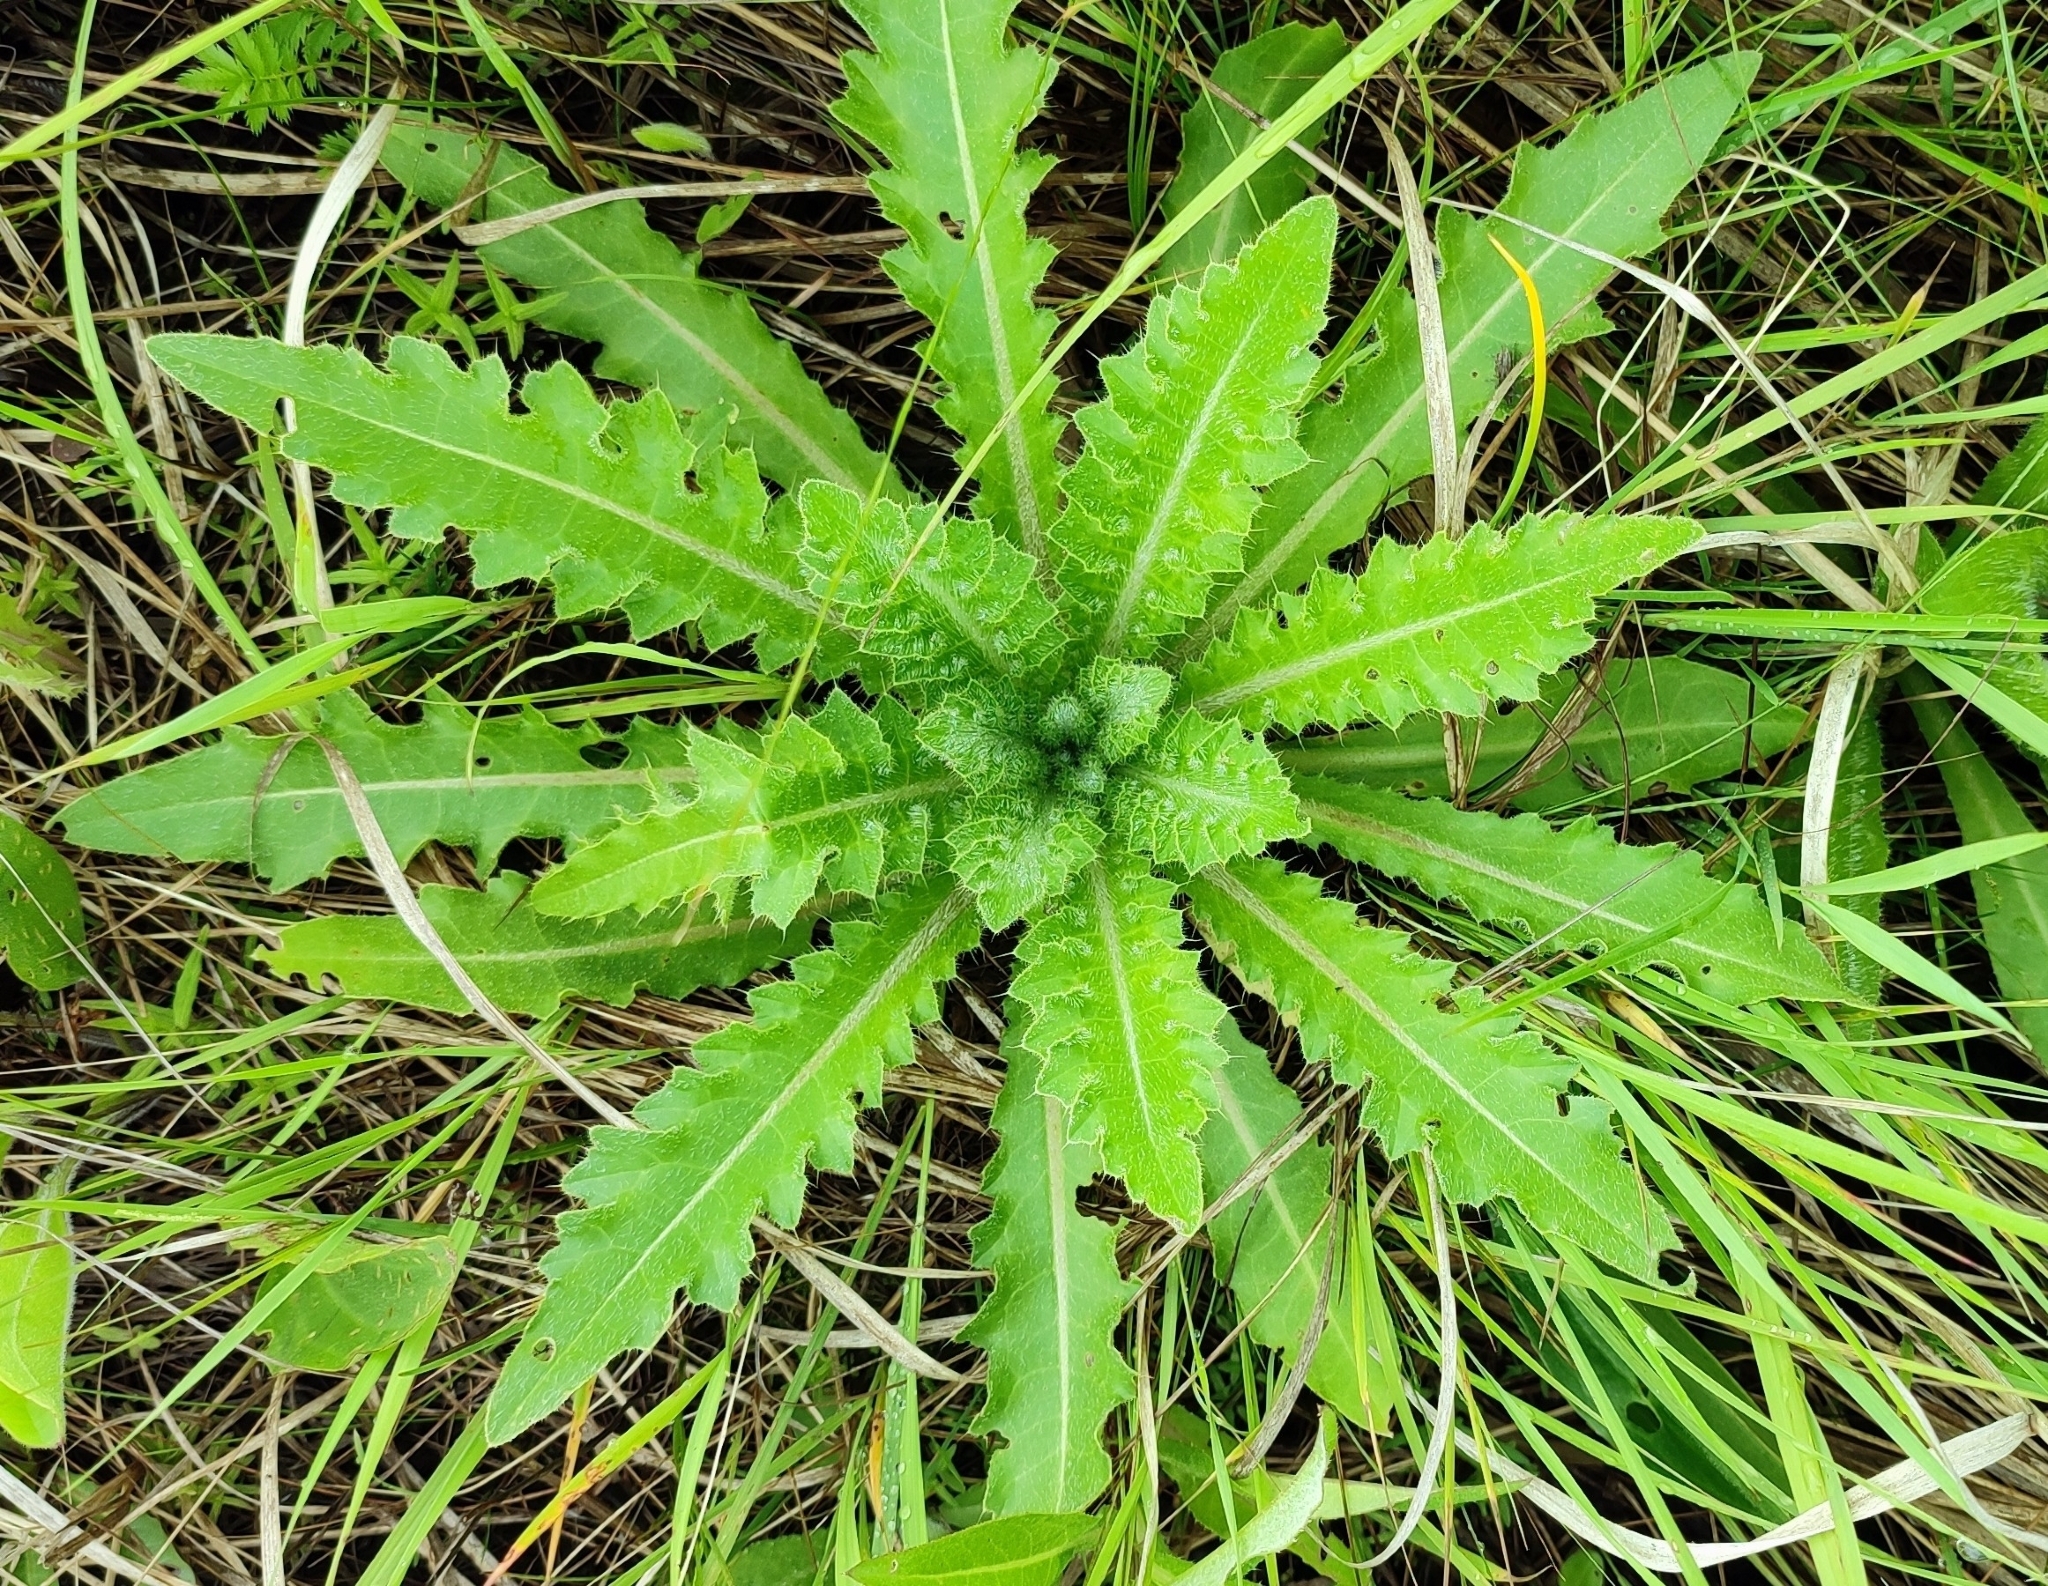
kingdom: Plantae
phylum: Tracheophyta
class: Magnoliopsida
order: Asterales
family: Asteraceae
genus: Cirsium
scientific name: Cirsium esculentum
